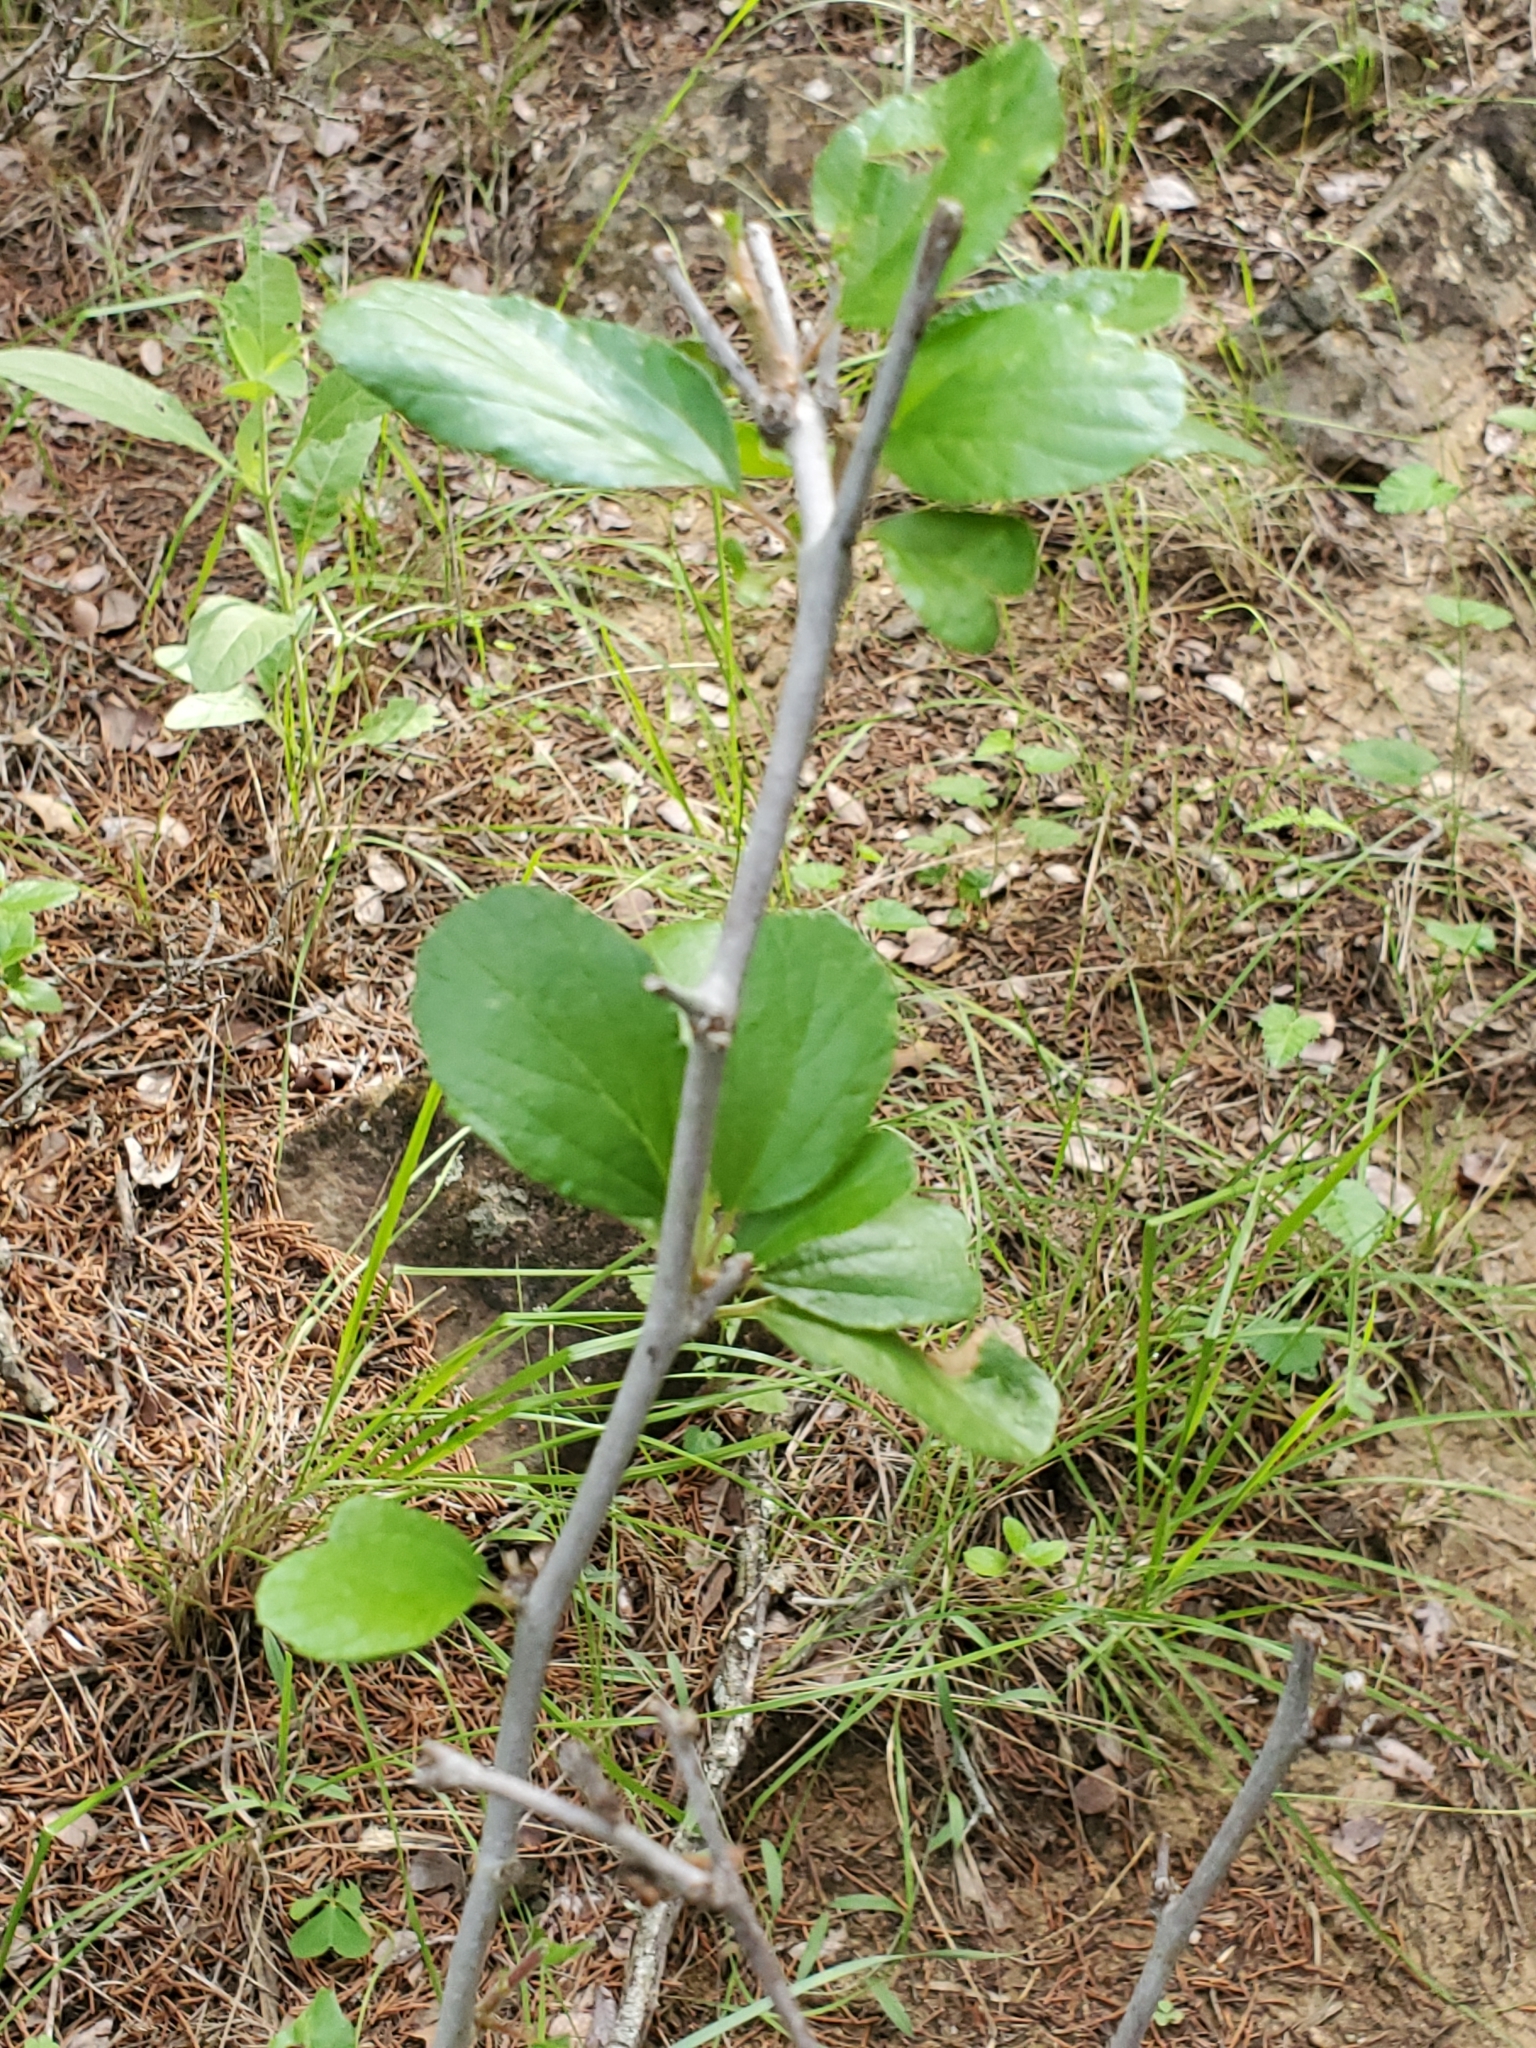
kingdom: Plantae
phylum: Tracheophyta
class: Magnoliopsida
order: Rosales
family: Rhamnaceae
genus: Colubrina
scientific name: Colubrina texensis
